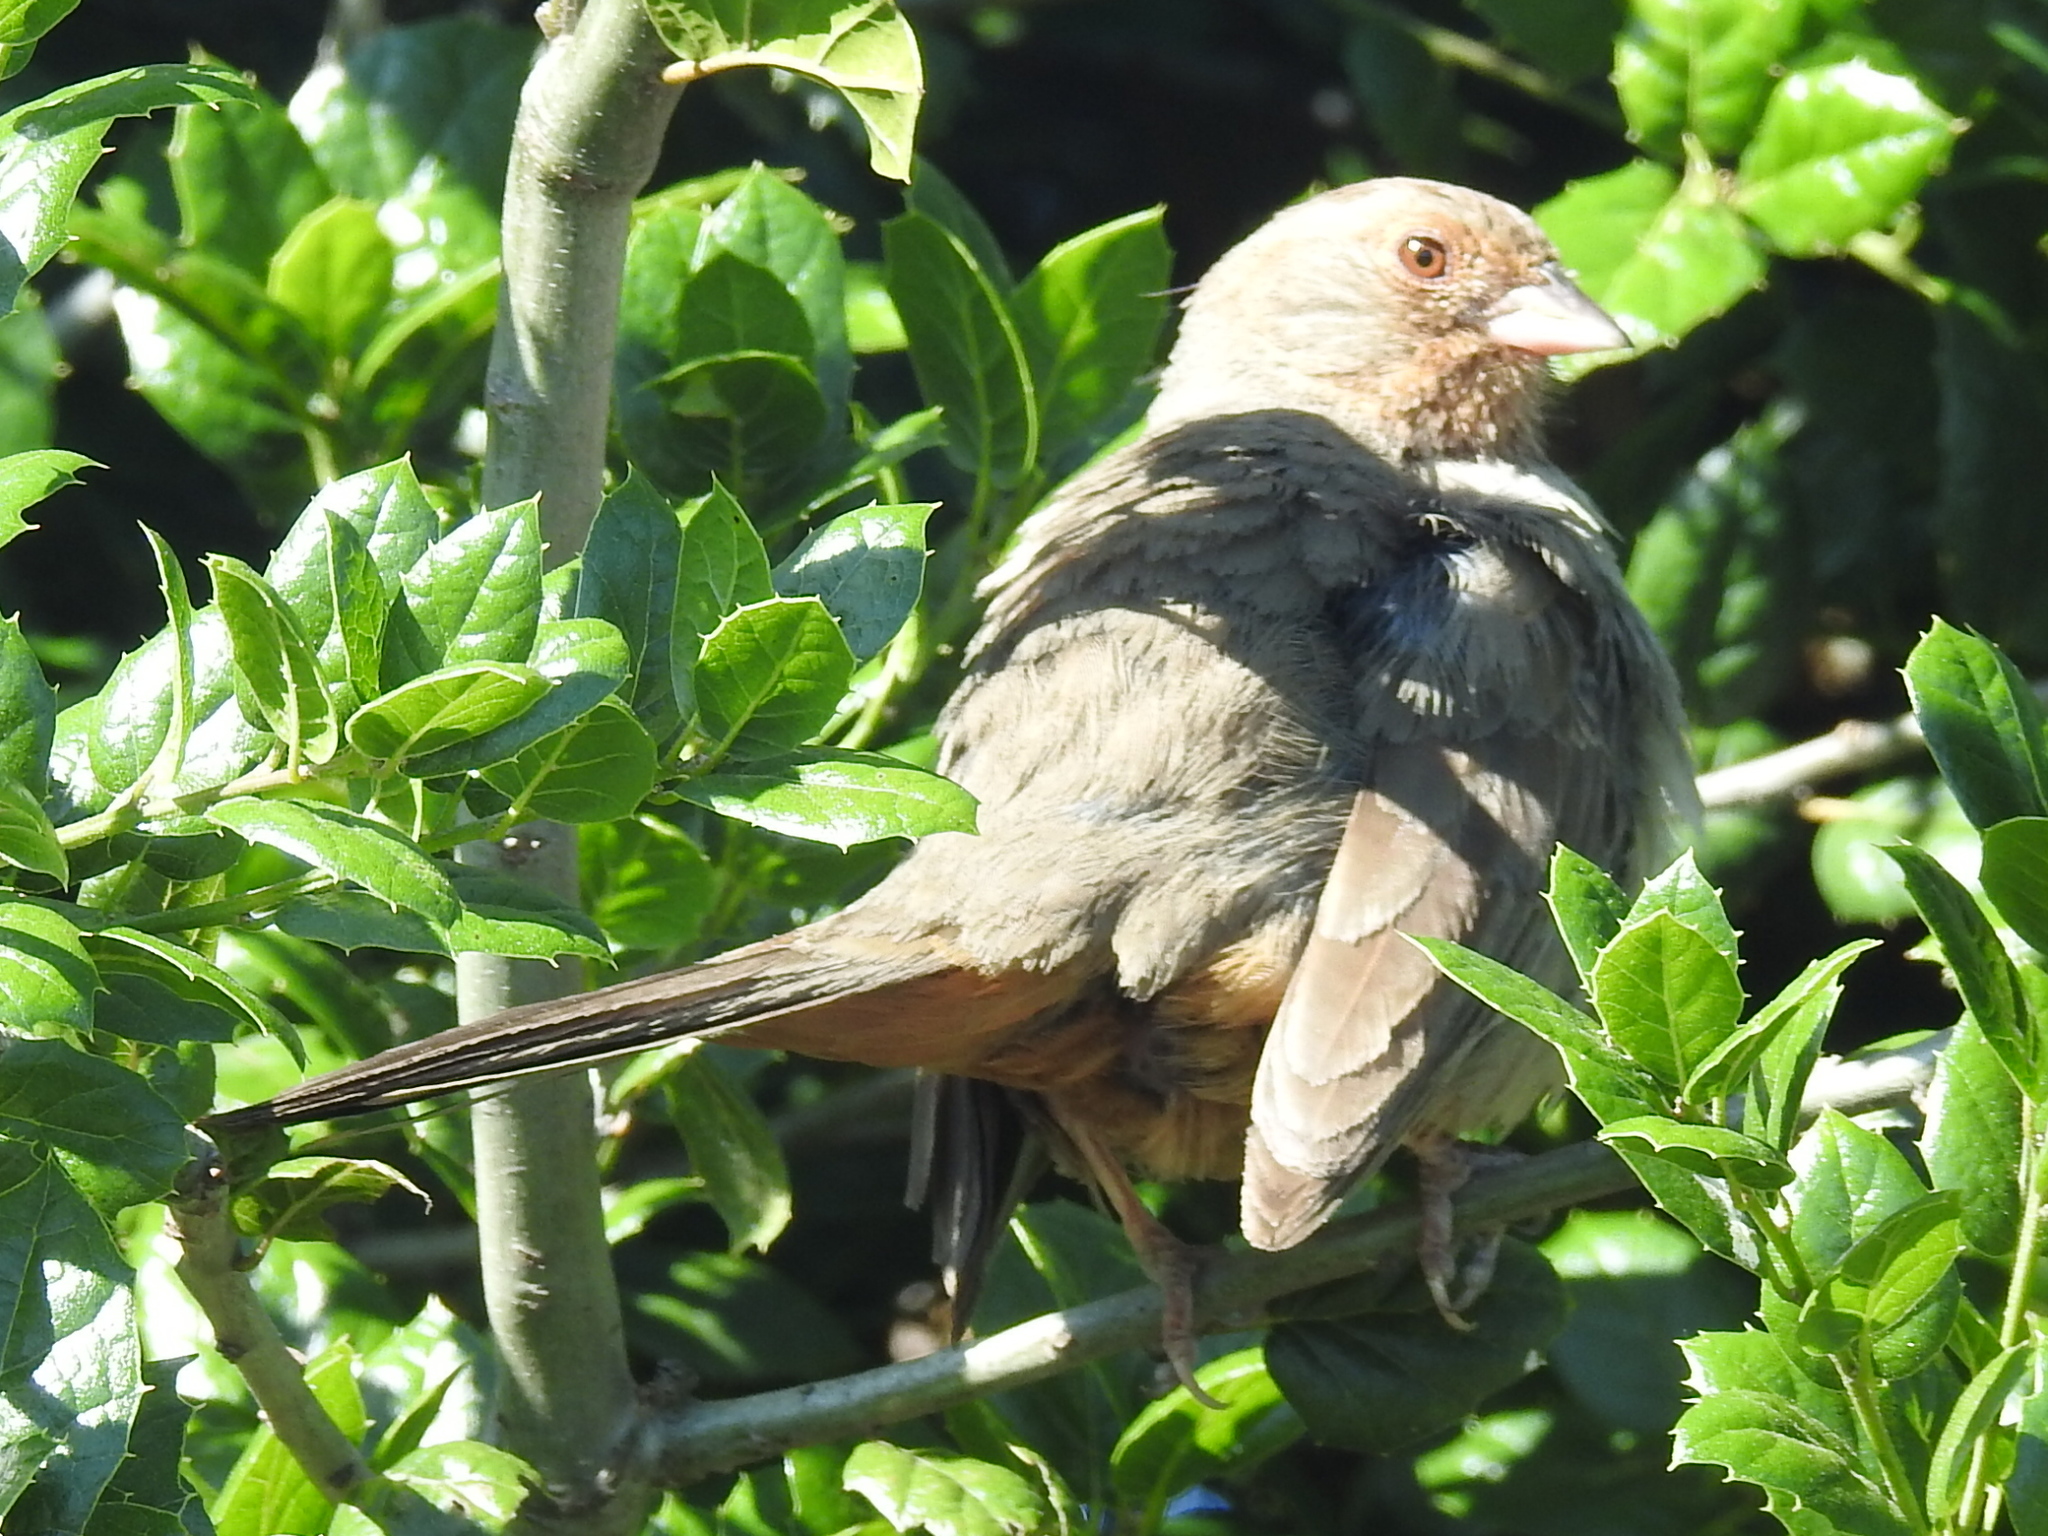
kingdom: Animalia
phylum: Chordata
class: Aves
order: Passeriformes
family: Passerellidae
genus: Melozone
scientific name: Melozone crissalis
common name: California towhee
